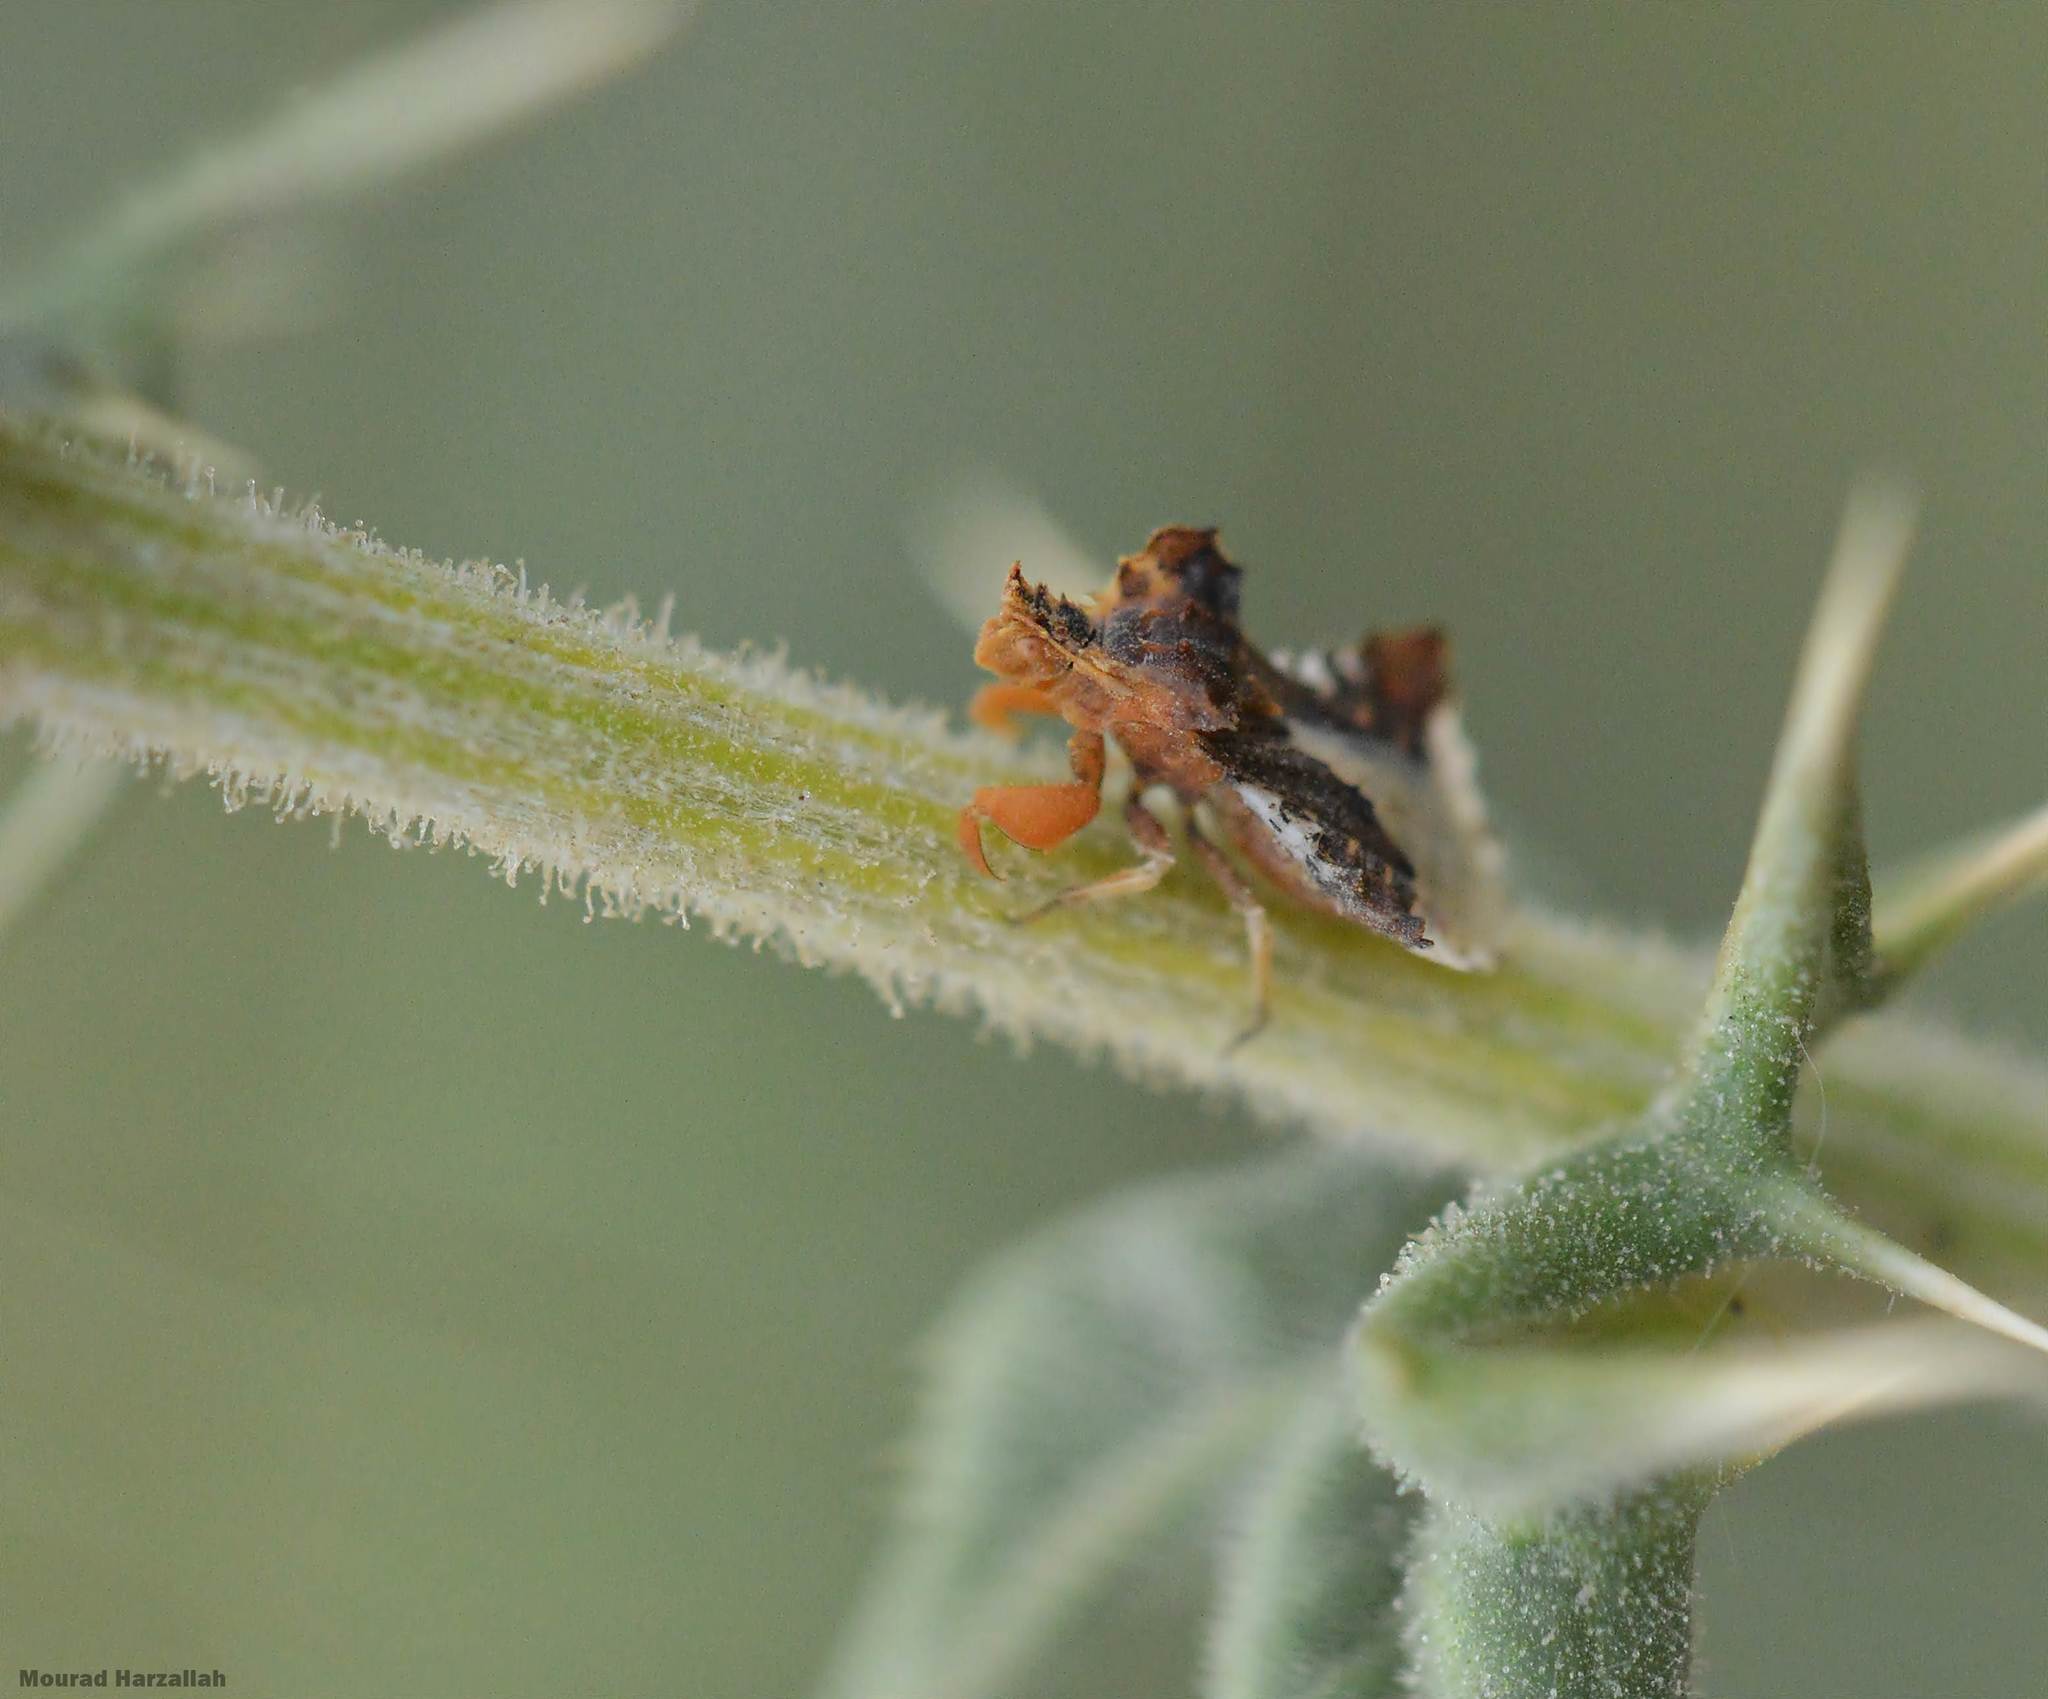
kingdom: Animalia
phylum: Arthropoda
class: Insecta
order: Hemiptera
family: Reduviidae
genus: Phymata
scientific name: Phymata monstrosa
